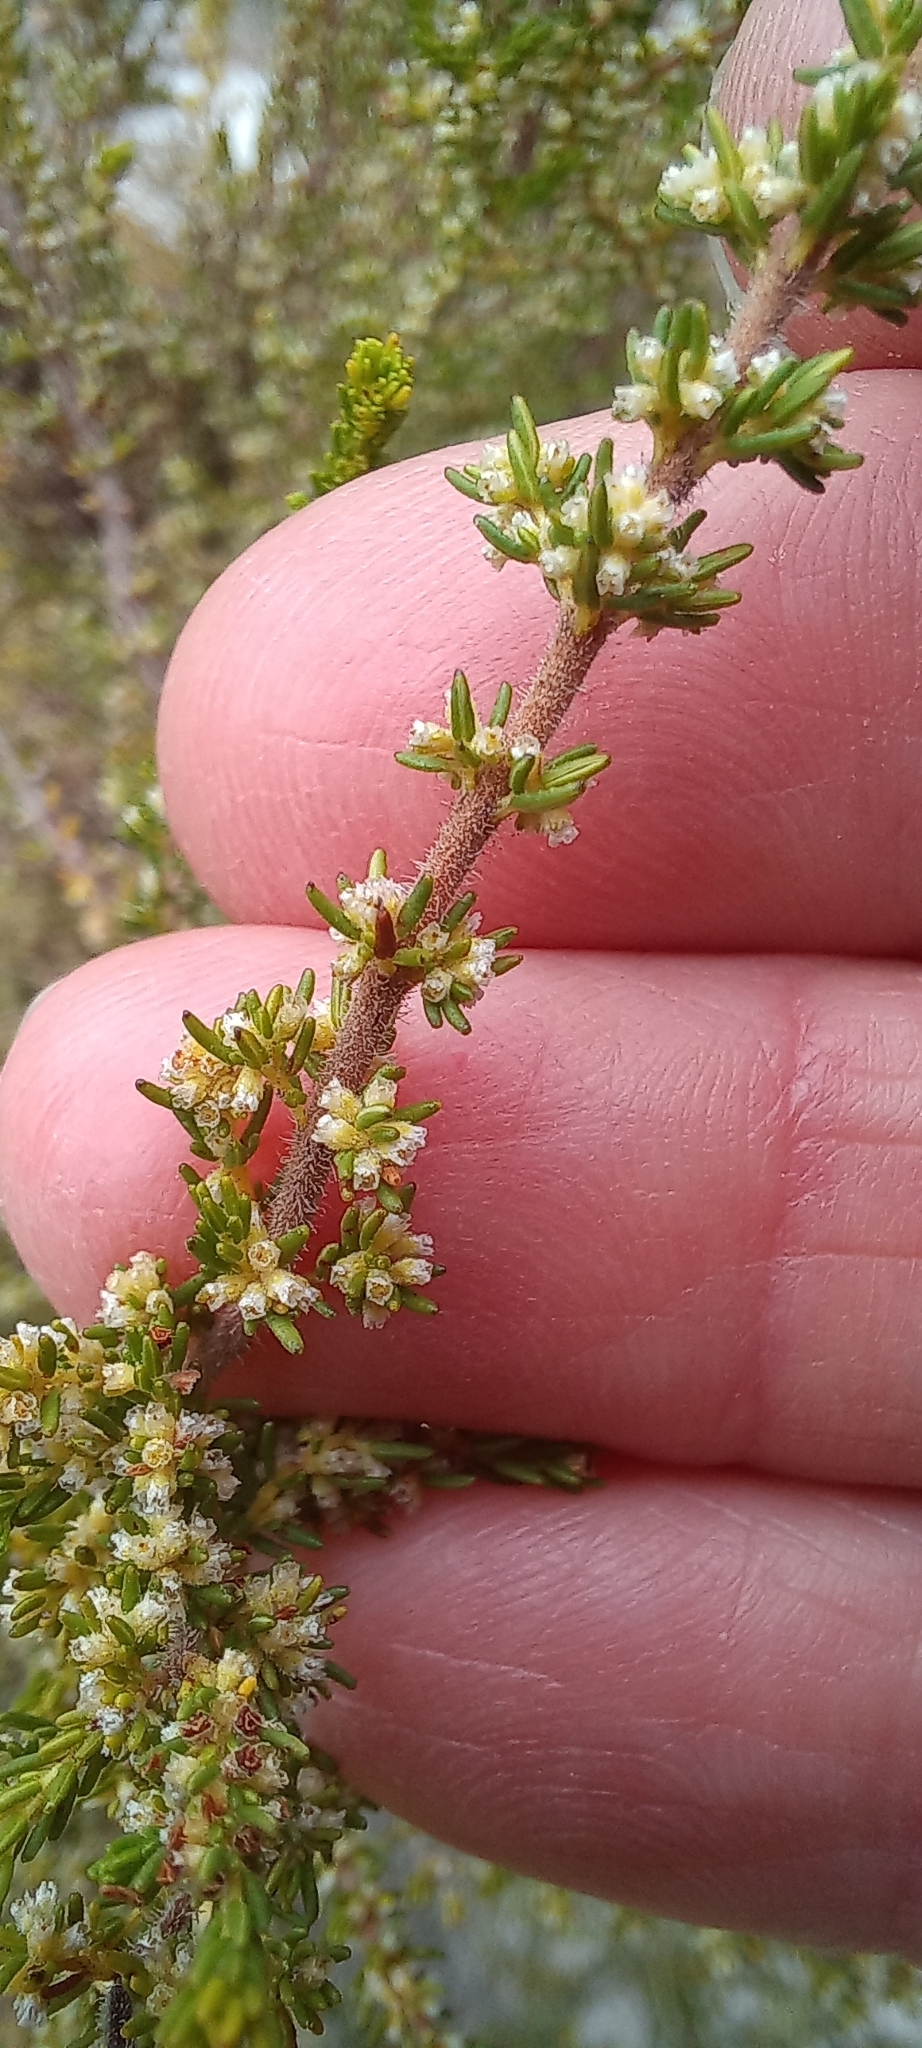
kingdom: Plantae
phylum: Tracheophyta
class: Magnoliopsida
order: Ericales
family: Ericaceae
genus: Erica
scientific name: Erica muscosa
